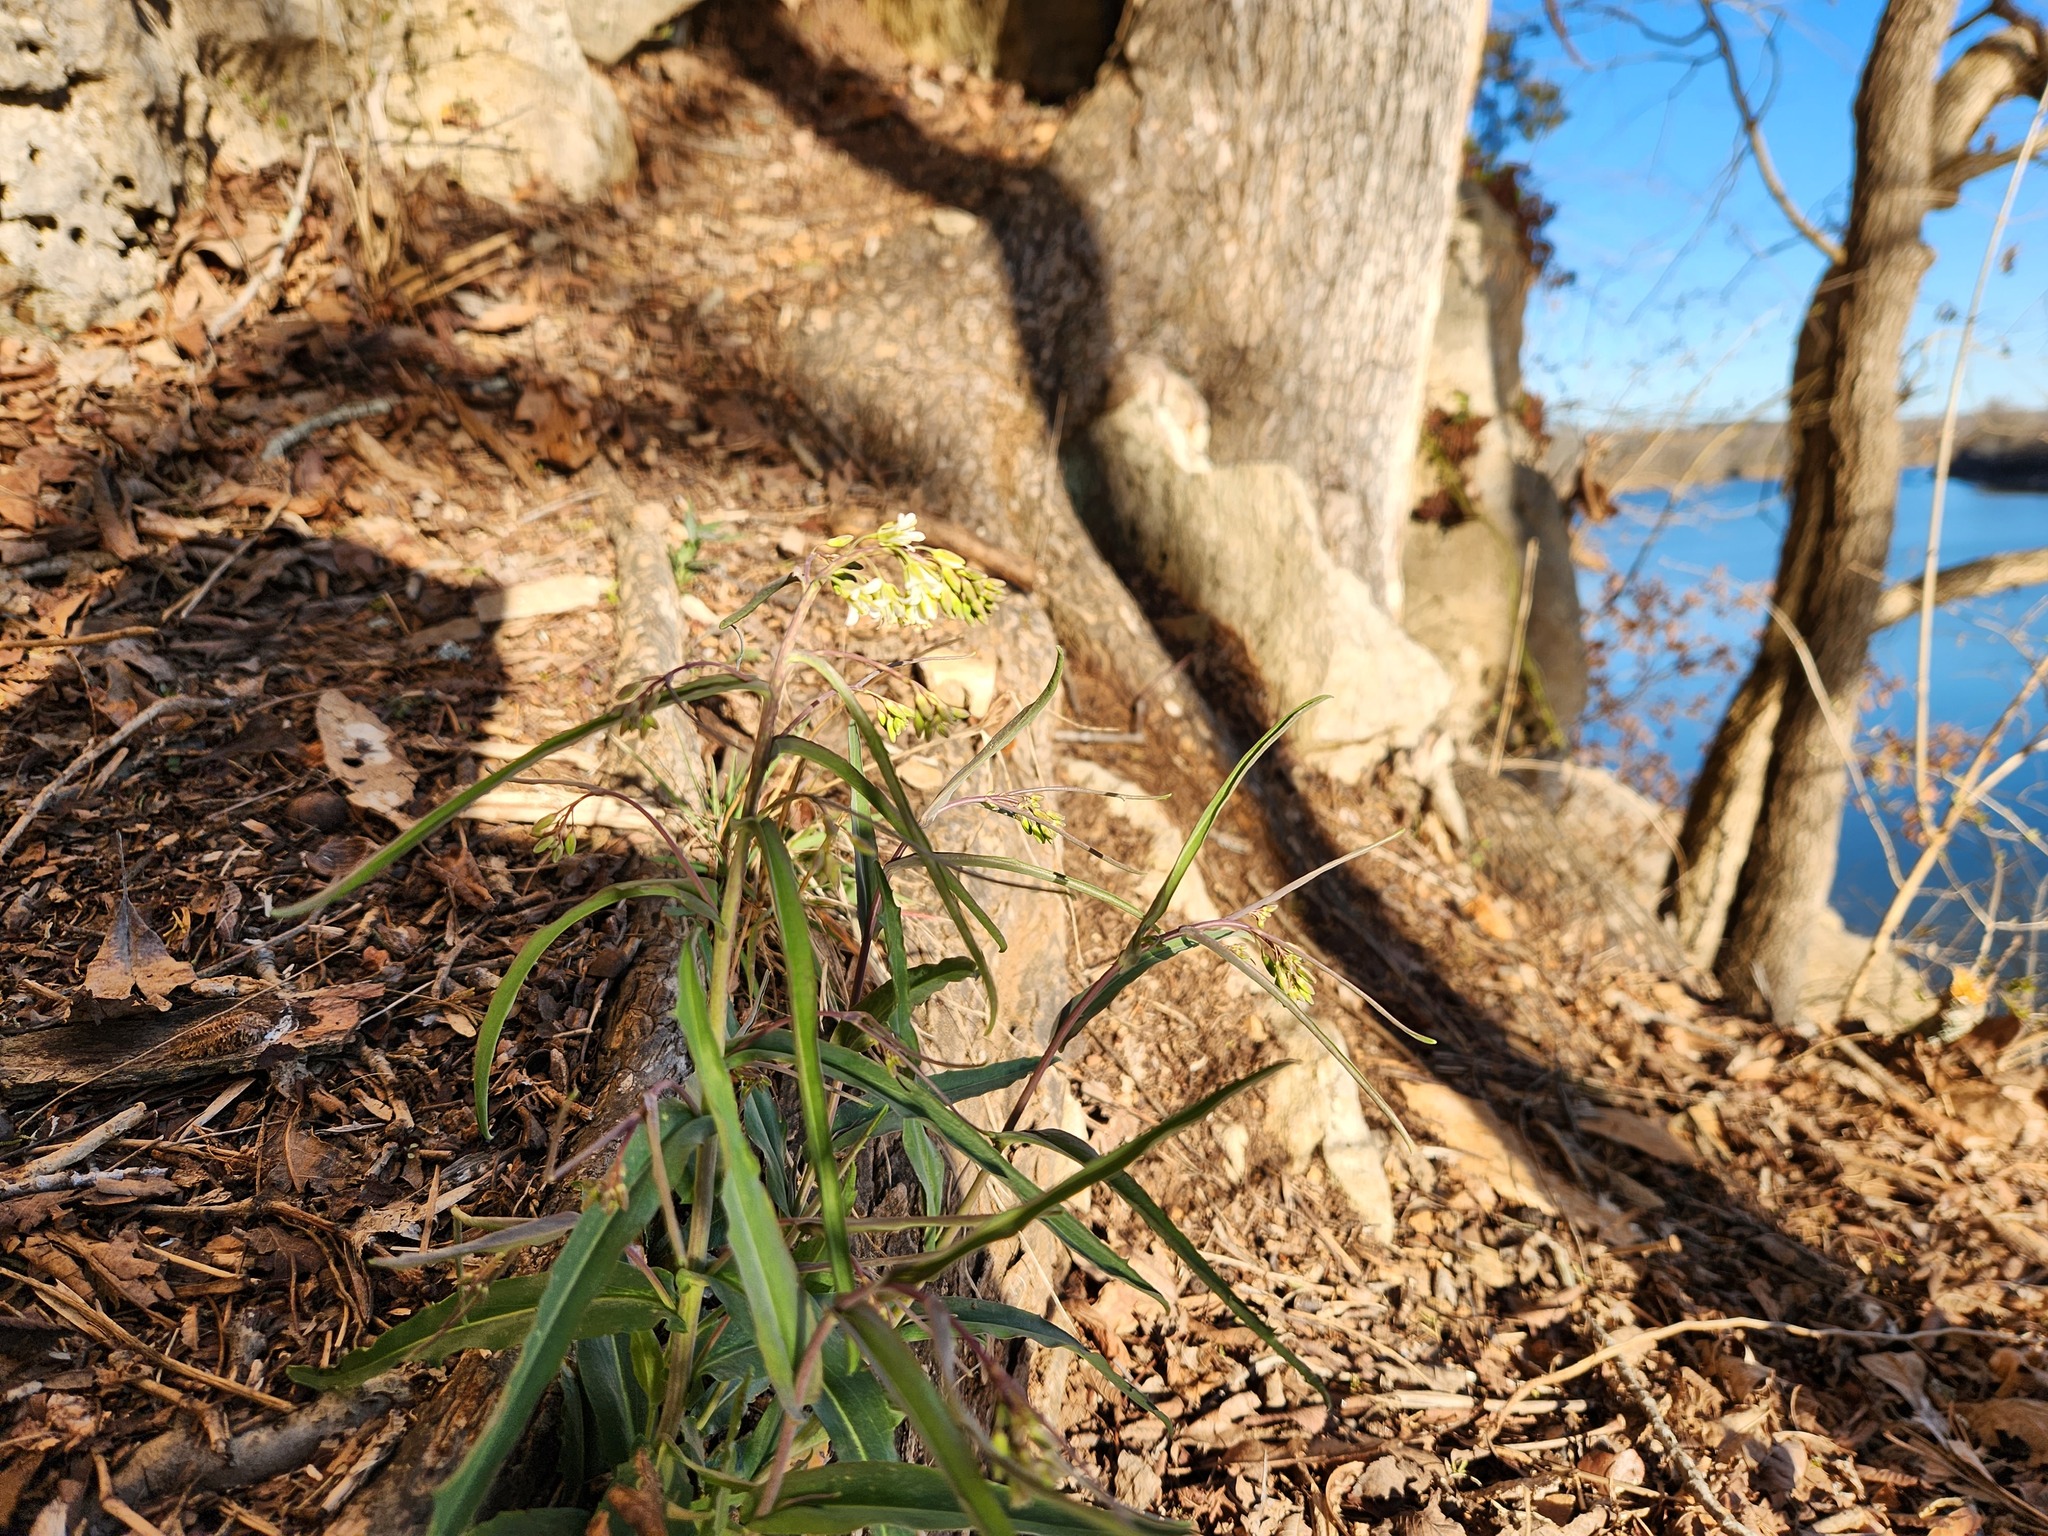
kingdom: Plantae
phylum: Tracheophyta
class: Magnoliopsida
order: Brassicales
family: Brassicaceae
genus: Borodinia
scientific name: Borodinia laevigata
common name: Smooth rockcress
